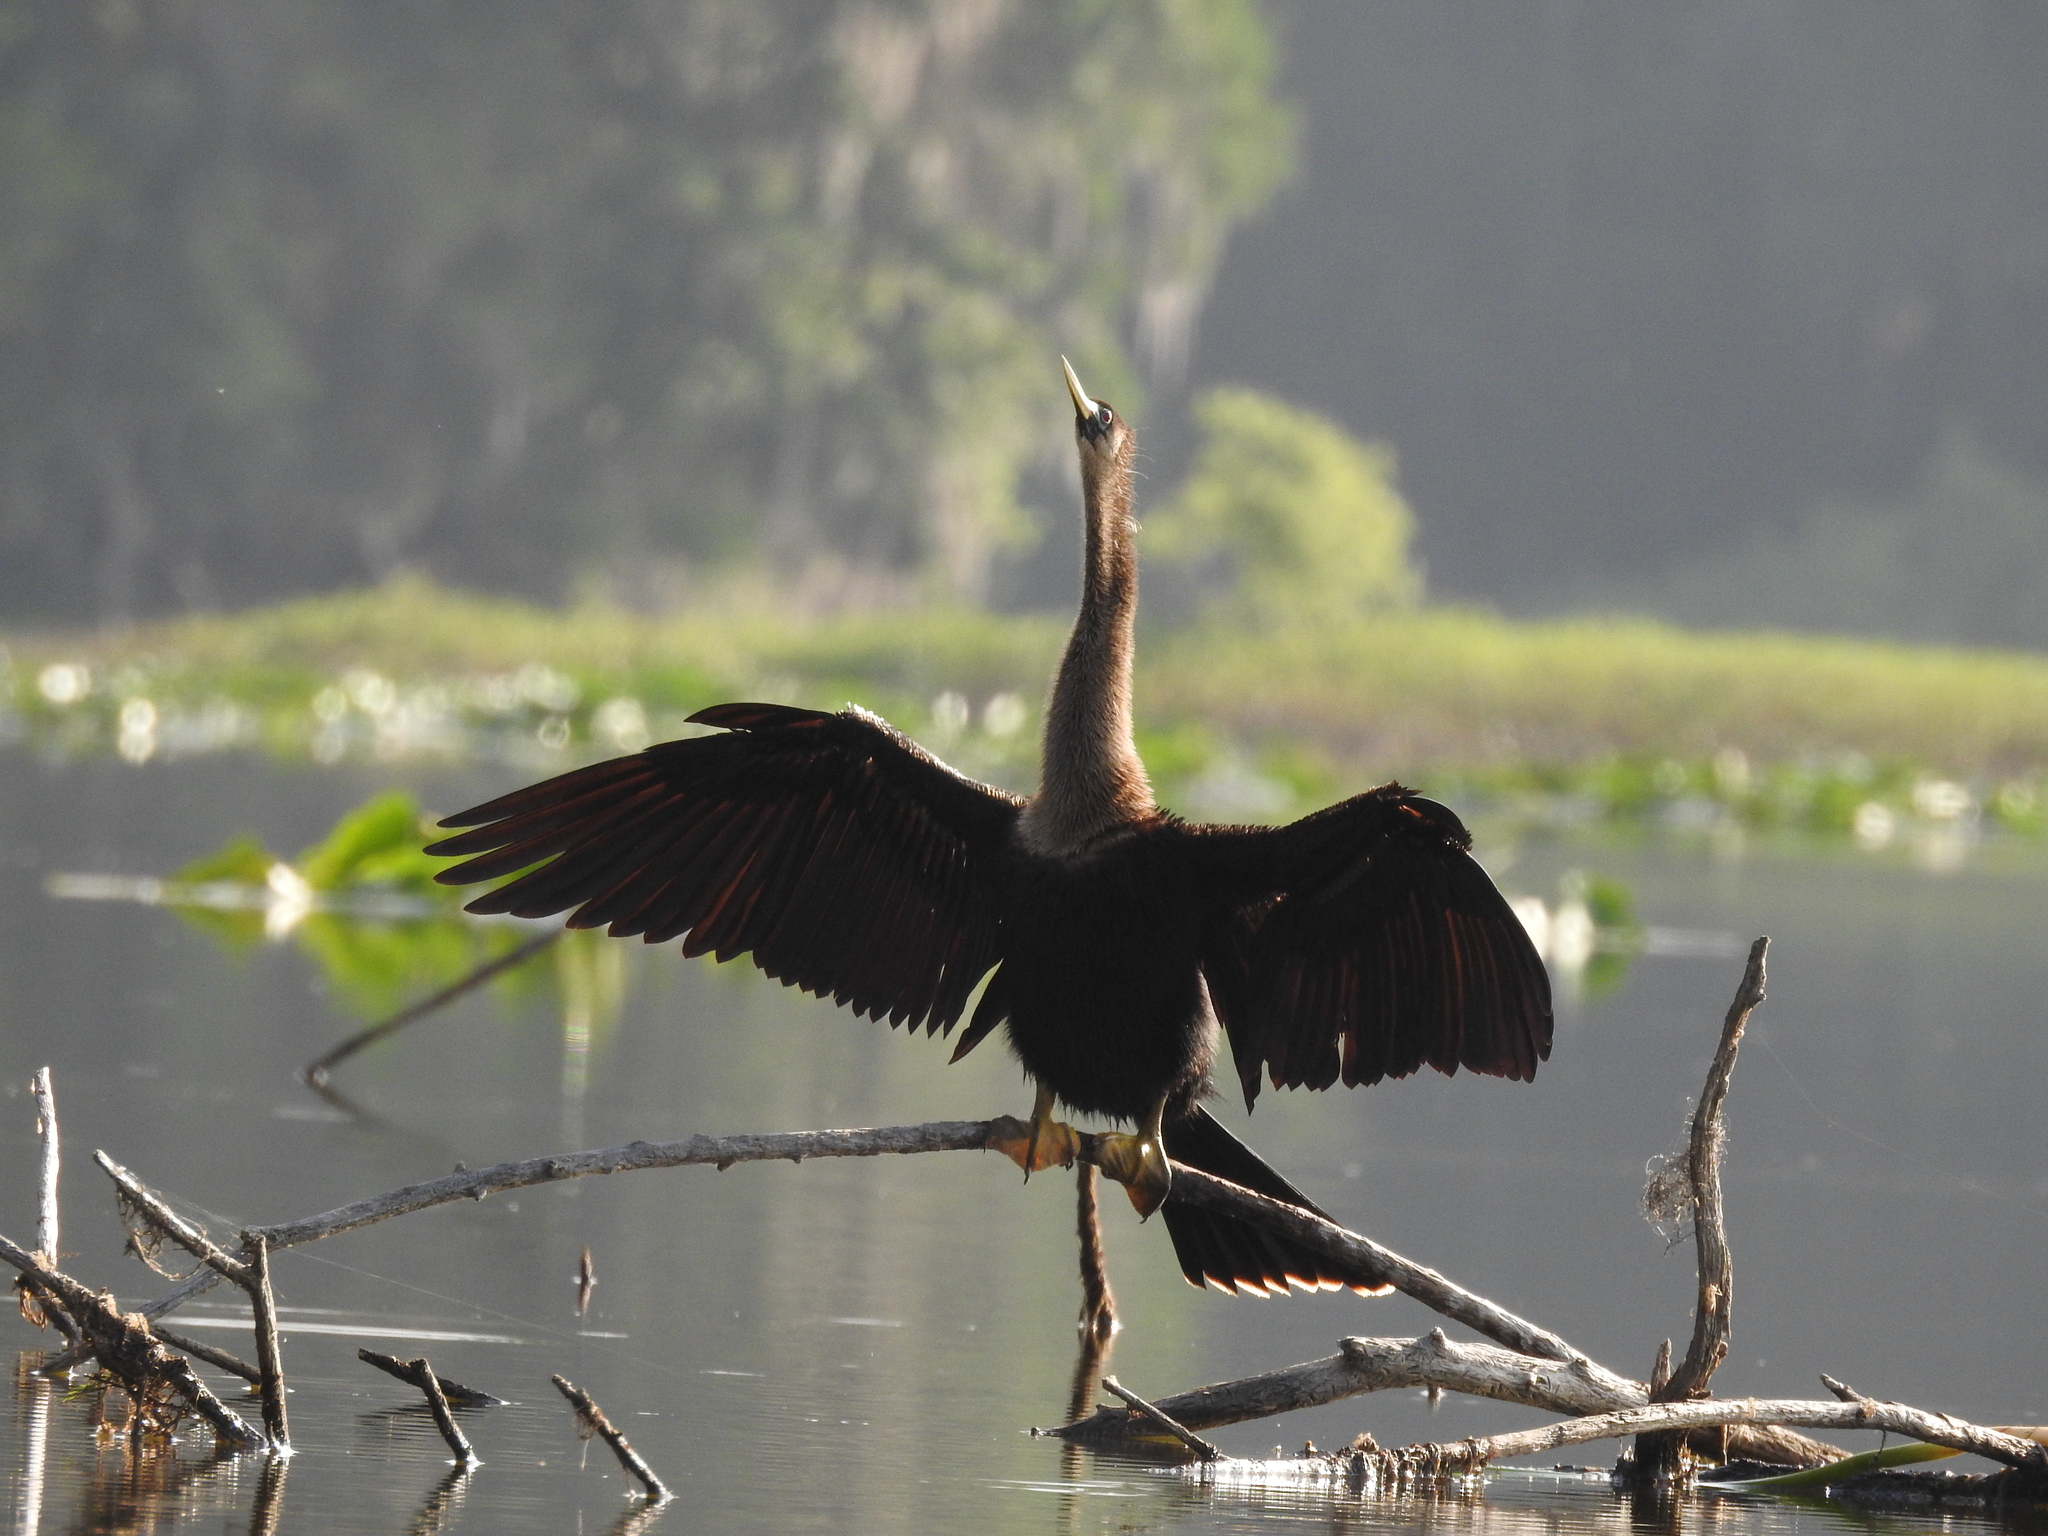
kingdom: Animalia
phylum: Chordata
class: Aves
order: Suliformes
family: Anhingidae
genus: Anhinga
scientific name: Anhinga anhinga
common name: Anhinga
